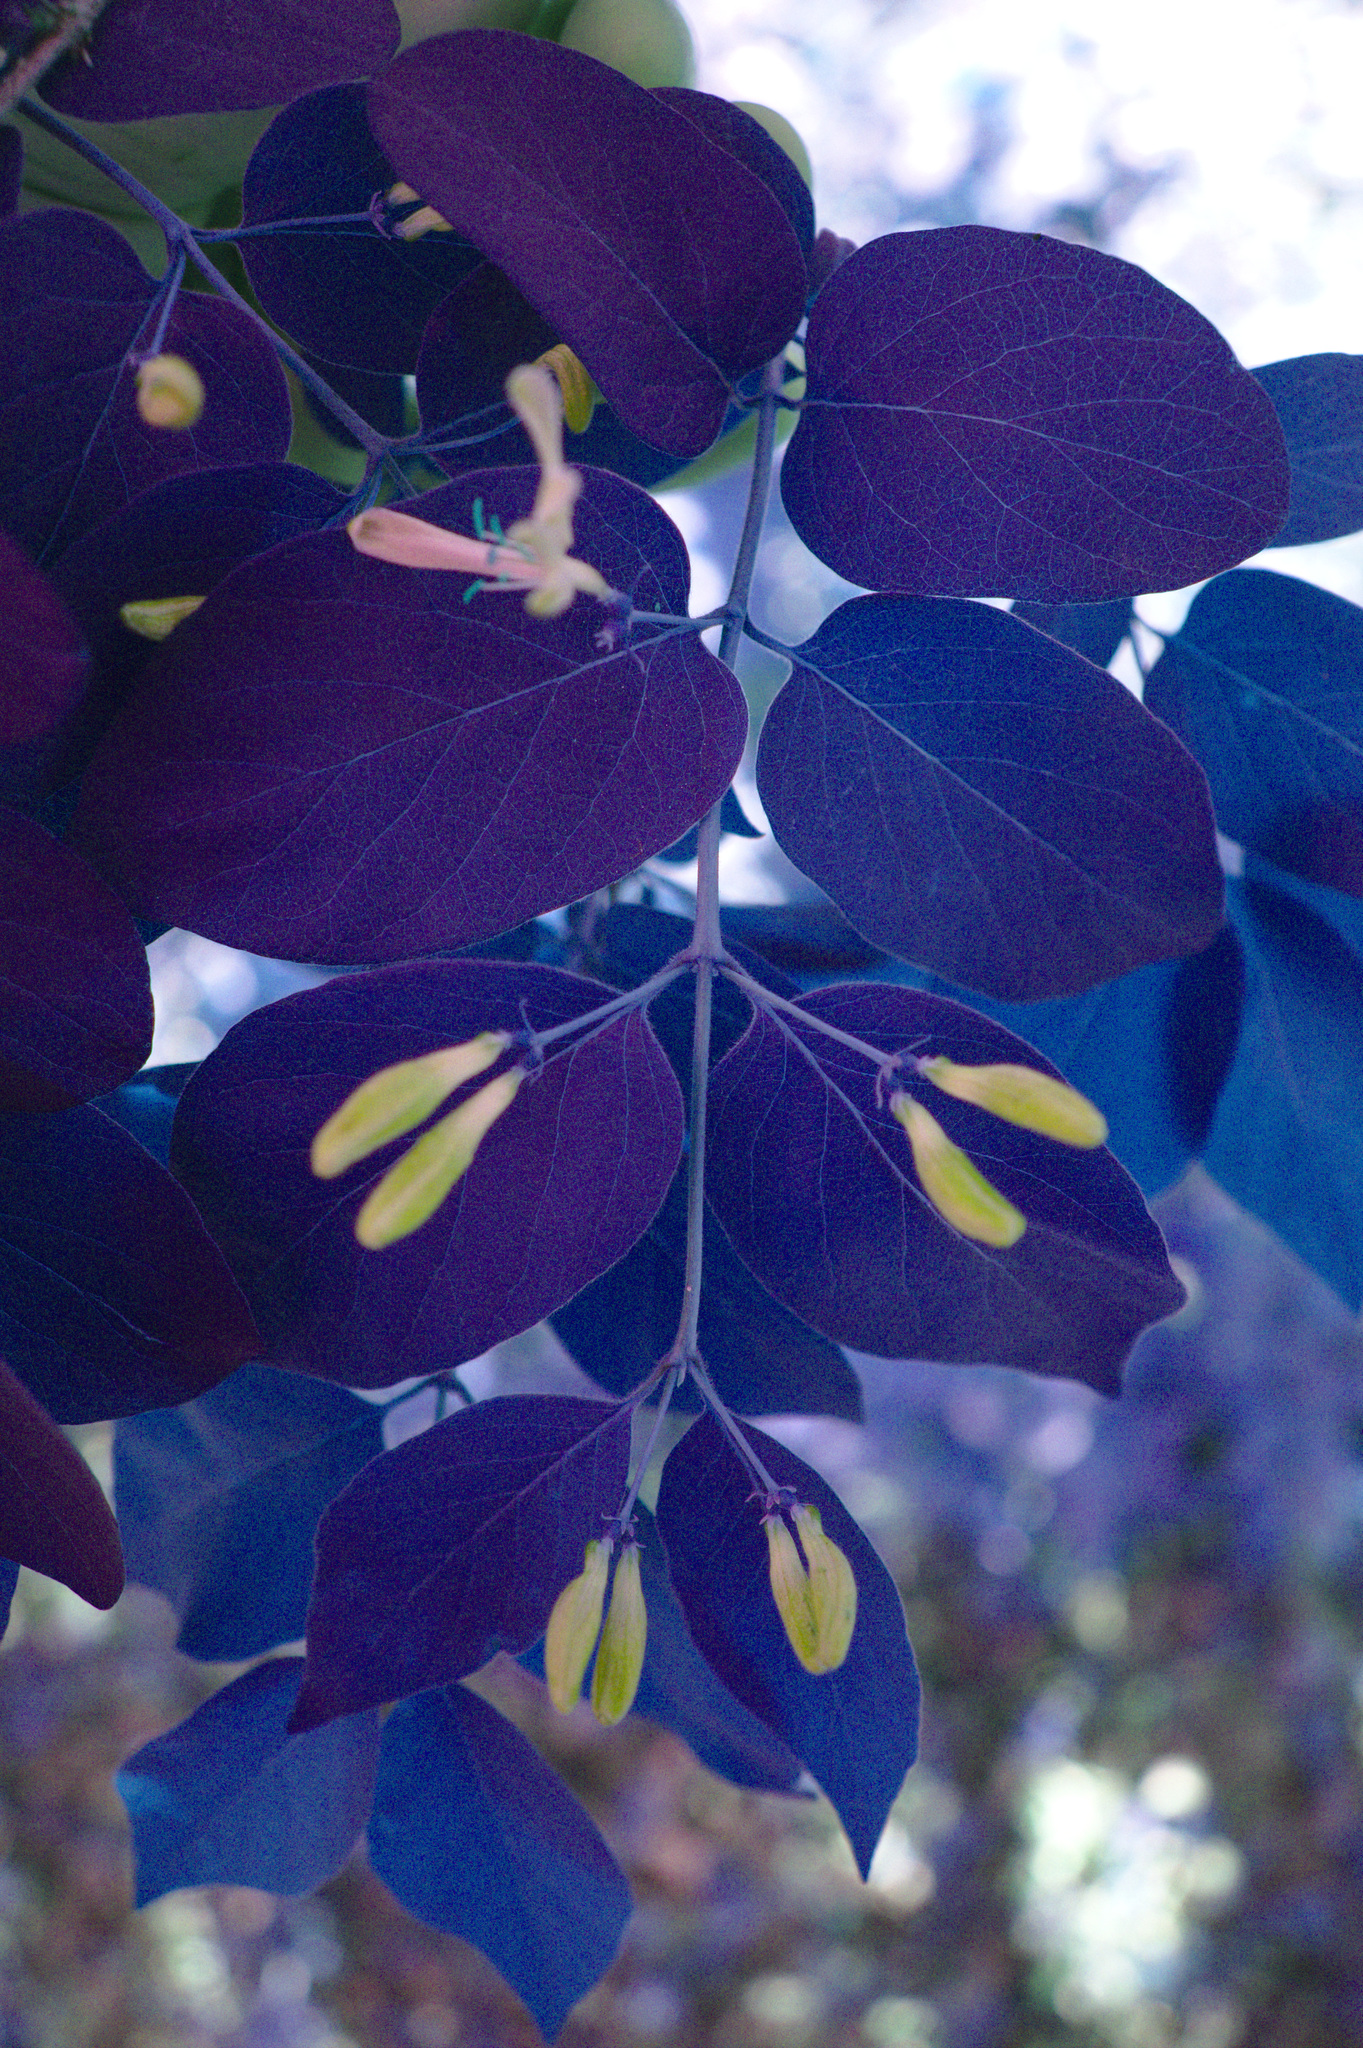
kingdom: Plantae
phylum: Tracheophyta
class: Magnoliopsida
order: Dipsacales
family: Caprifoliaceae
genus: Lonicera
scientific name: Lonicera bella
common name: Bell's honeysuckle
